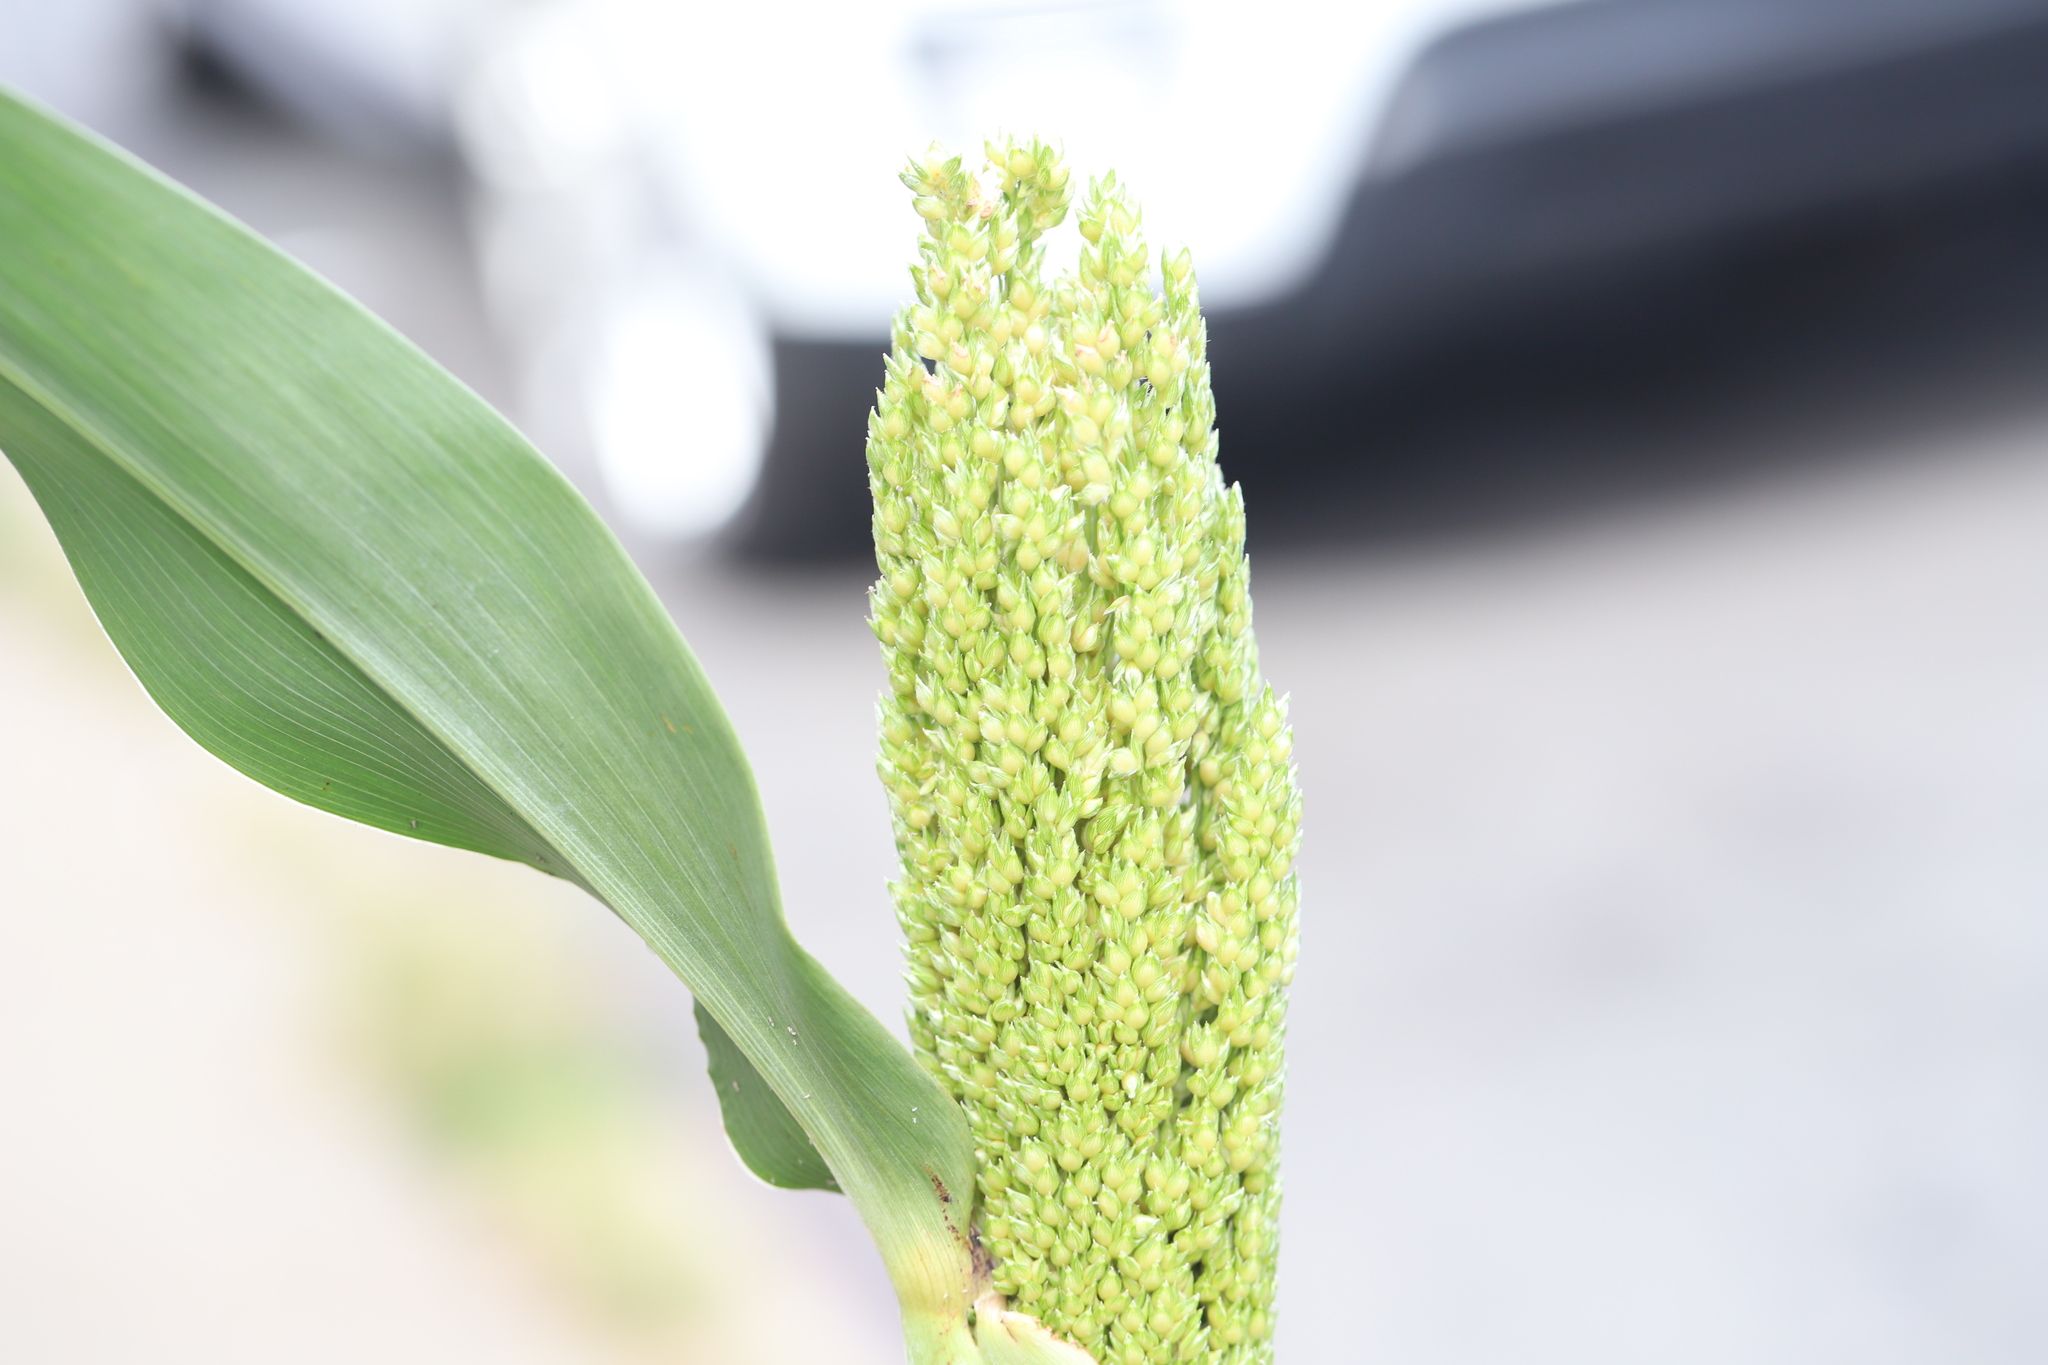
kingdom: Plantae
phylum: Tracheophyta
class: Liliopsida
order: Poales
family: Poaceae
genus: Sorghum
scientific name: Sorghum bicolor
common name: Sorghum
